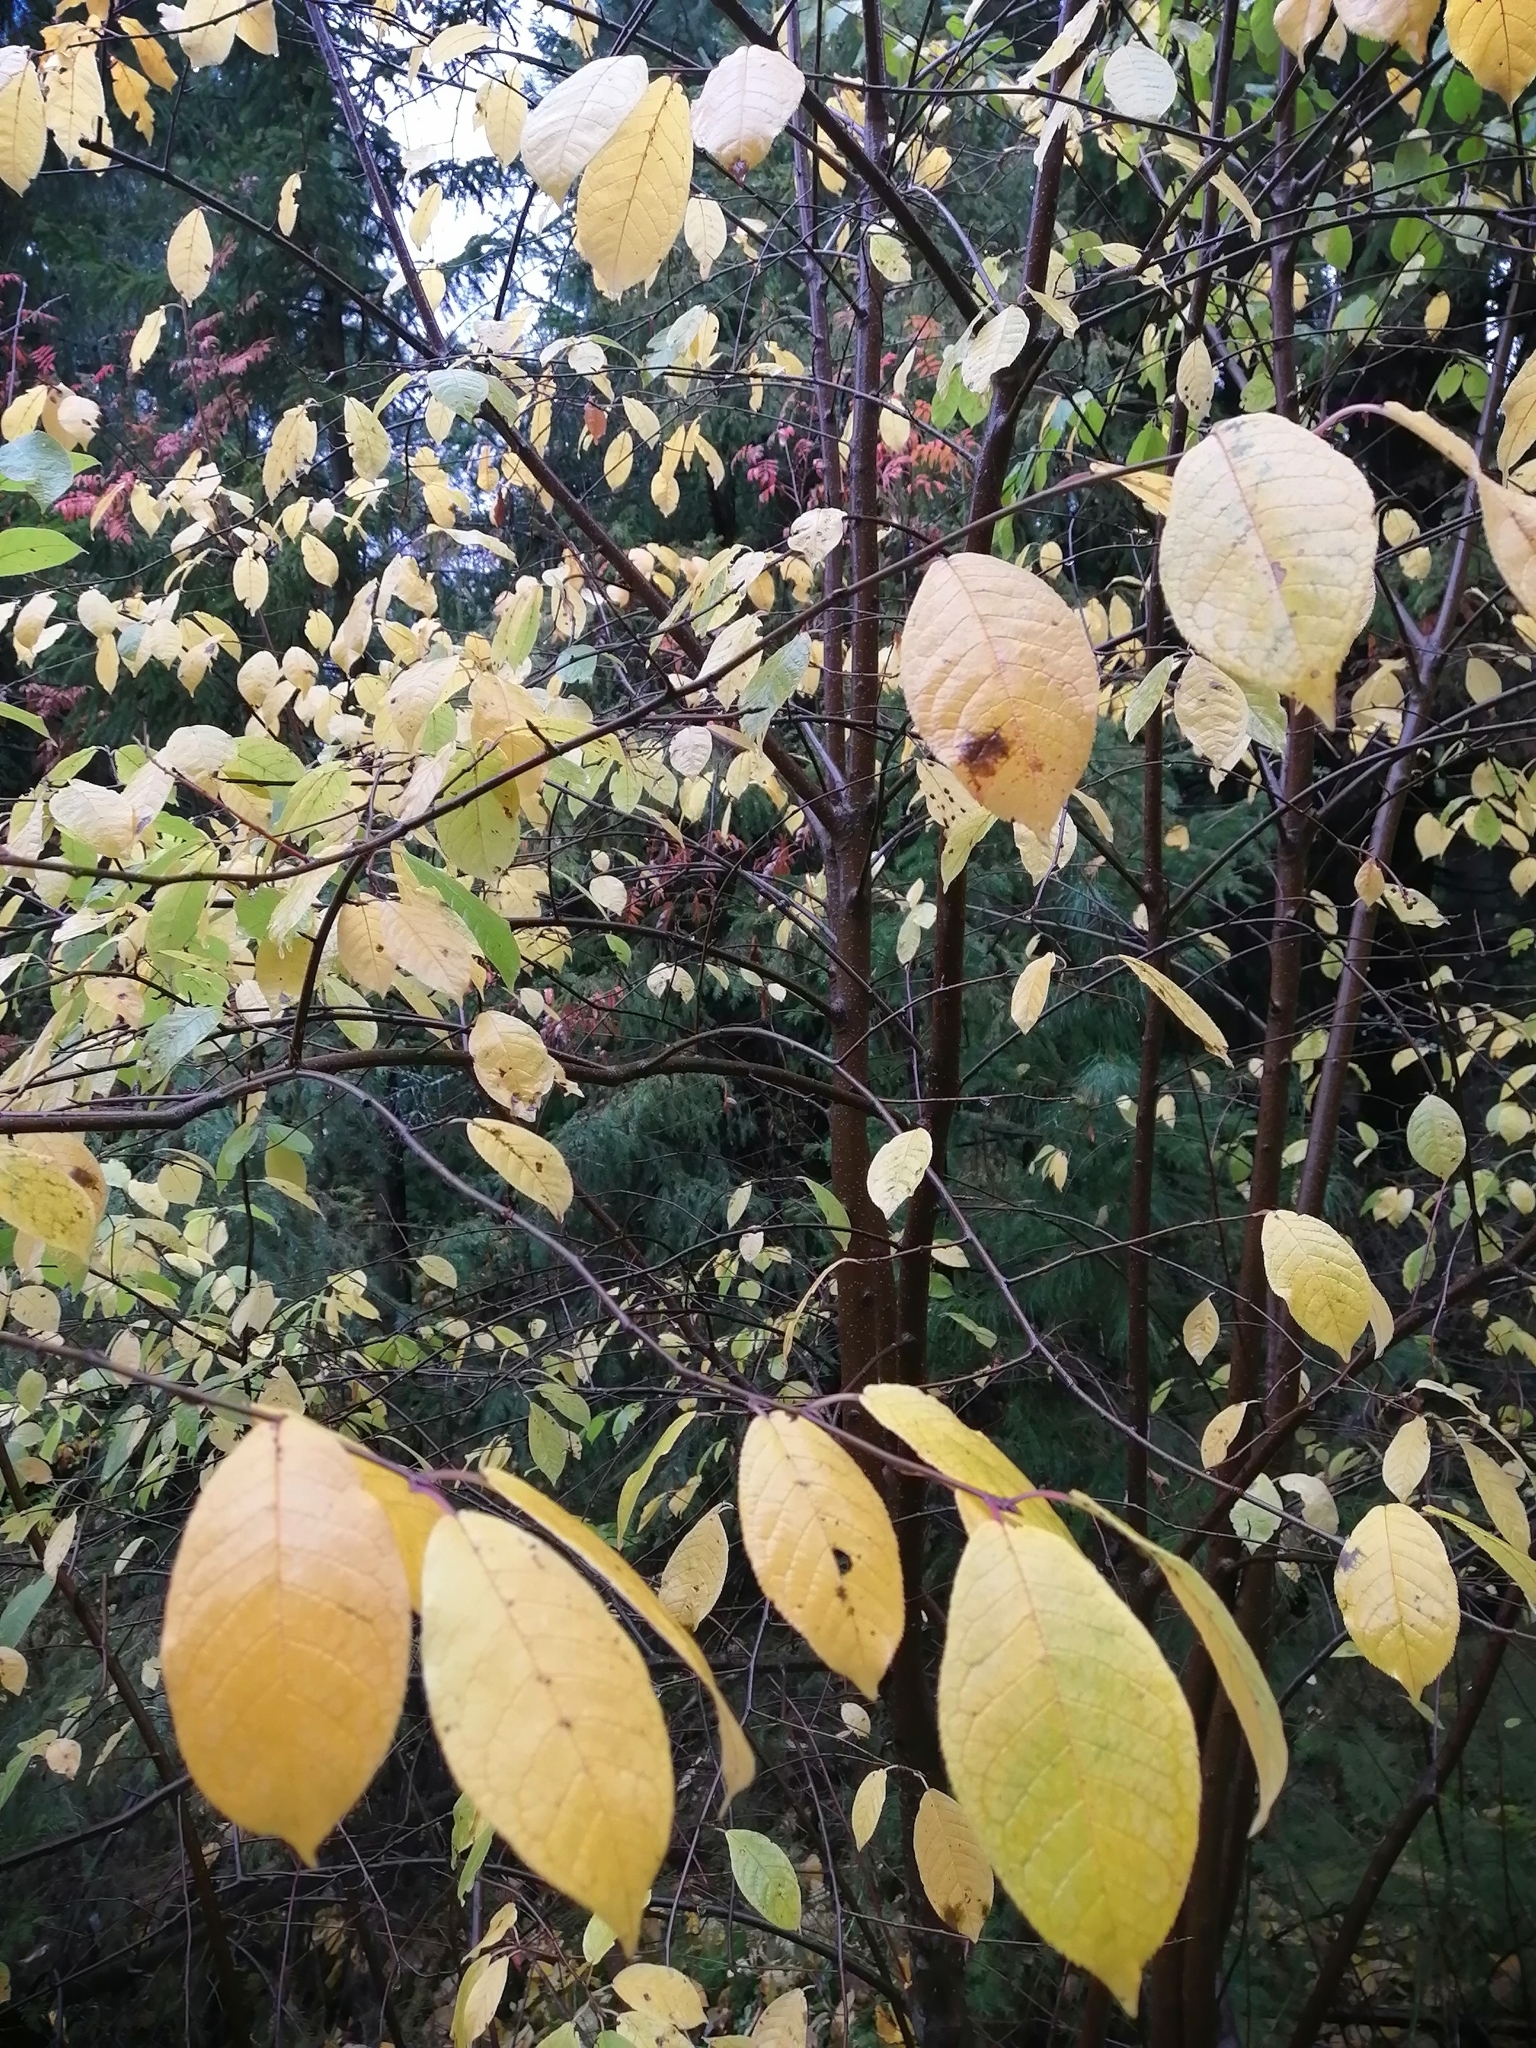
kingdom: Plantae
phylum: Tracheophyta
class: Magnoliopsida
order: Rosales
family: Rosaceae
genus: Prunus
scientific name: Prunus padus
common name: Bird cherry
